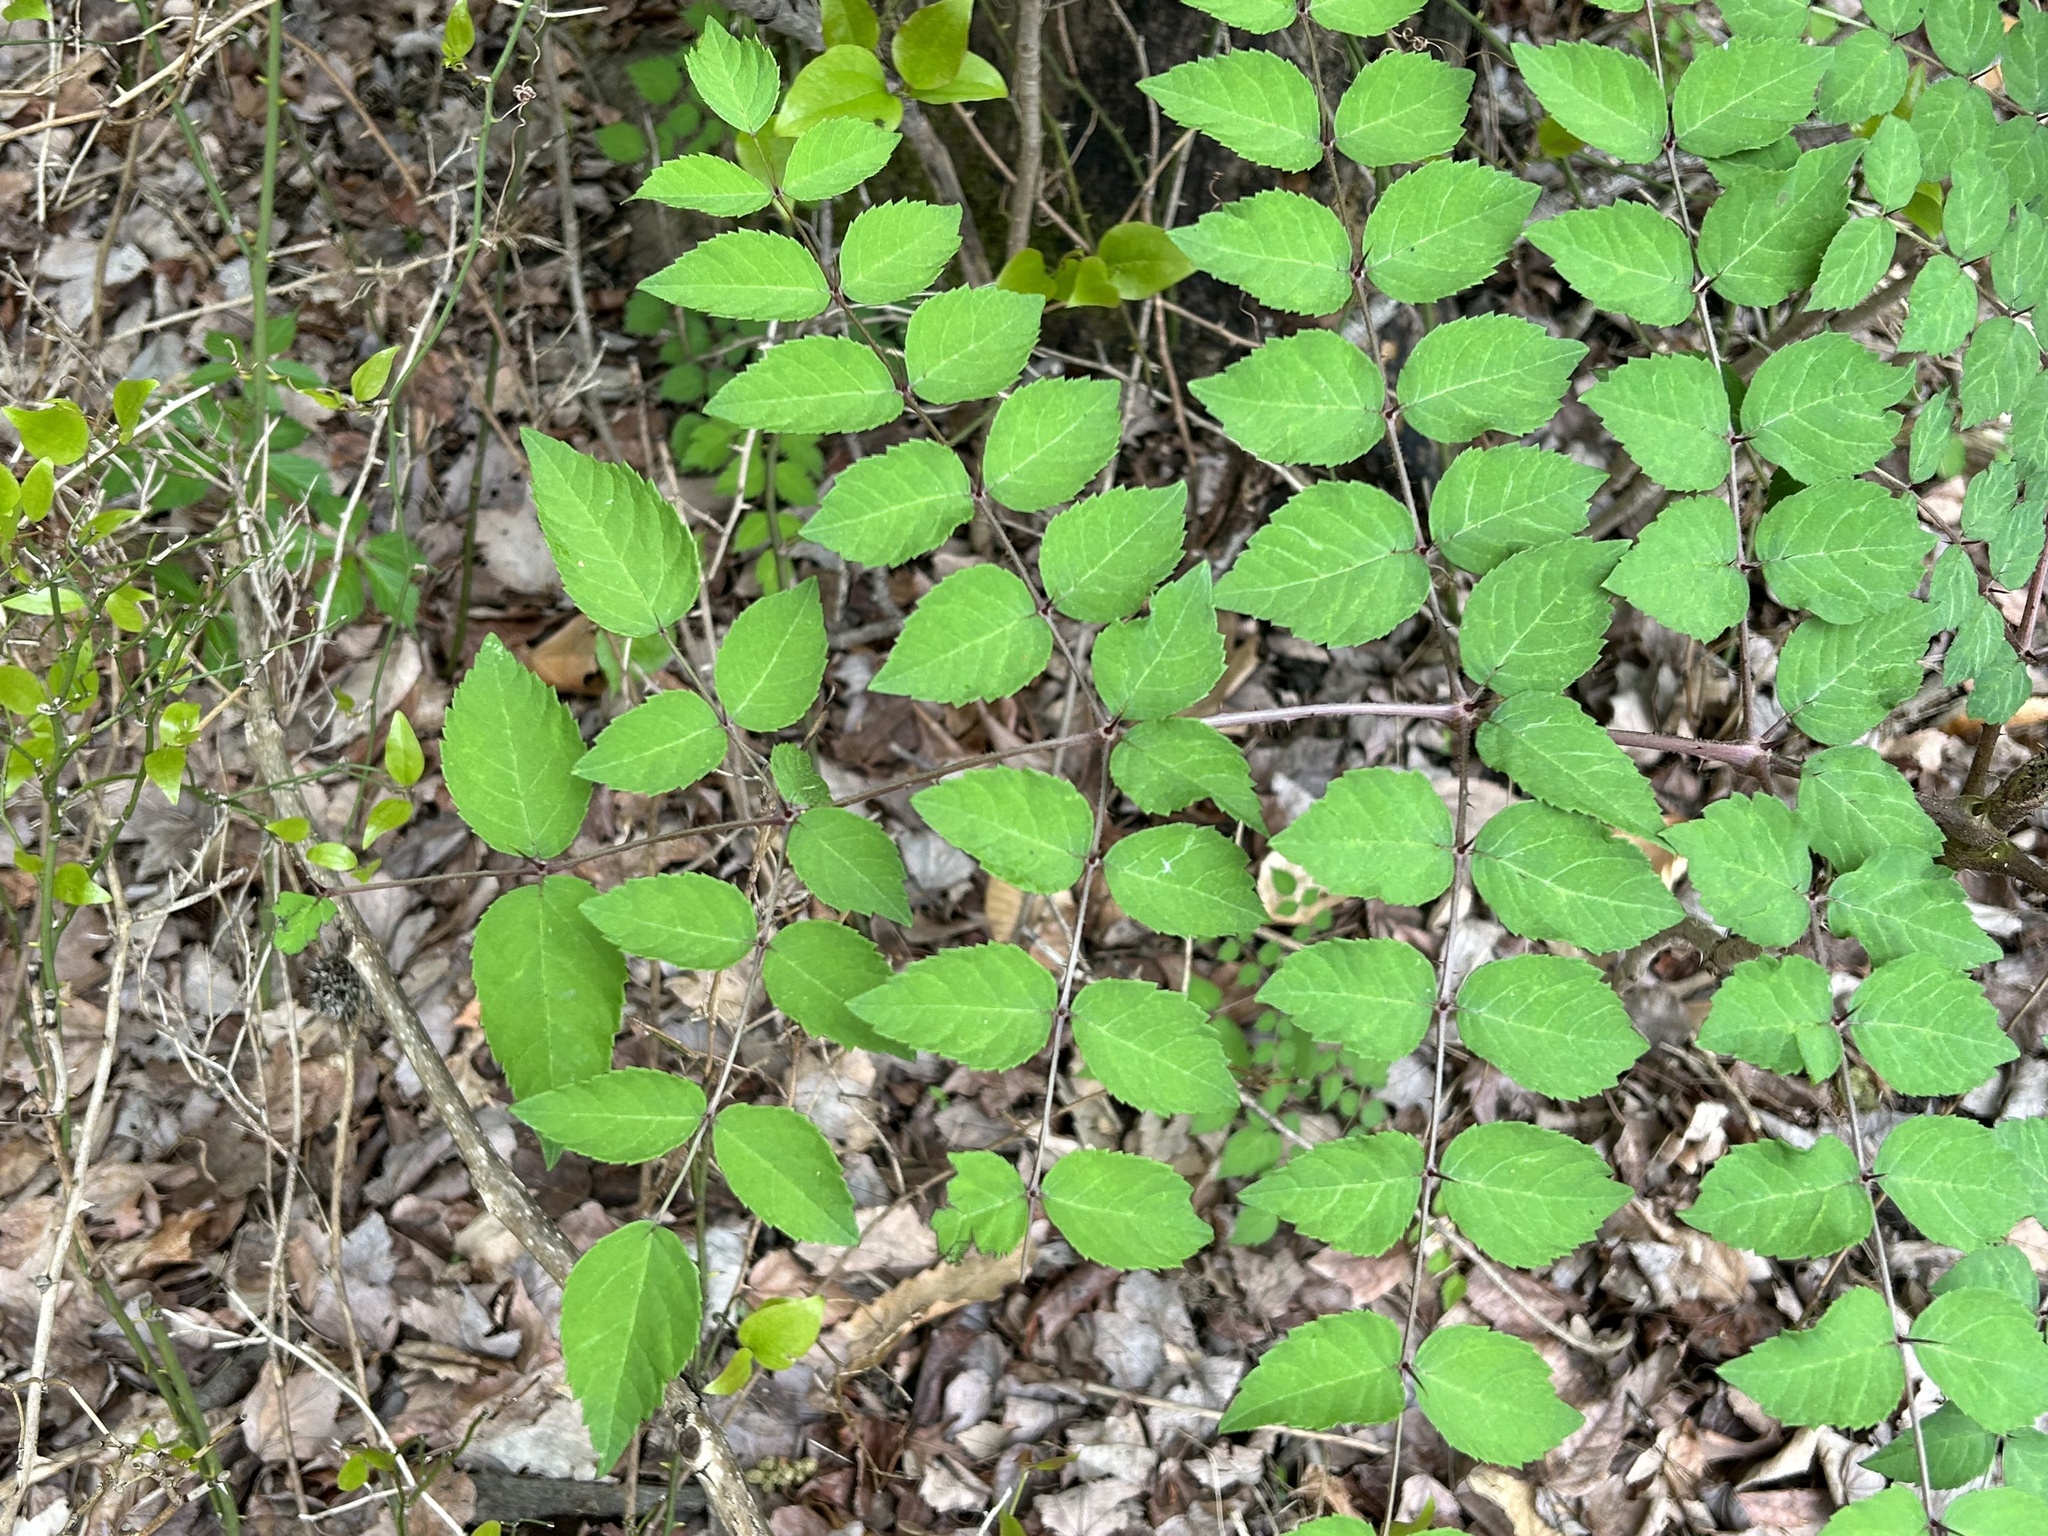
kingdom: Plantae
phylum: Tracheophyta
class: Magnoliopsida
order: Apiales
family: Araliaceae
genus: Aralia
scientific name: Aralia elata
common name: Japanese angelica-tree
